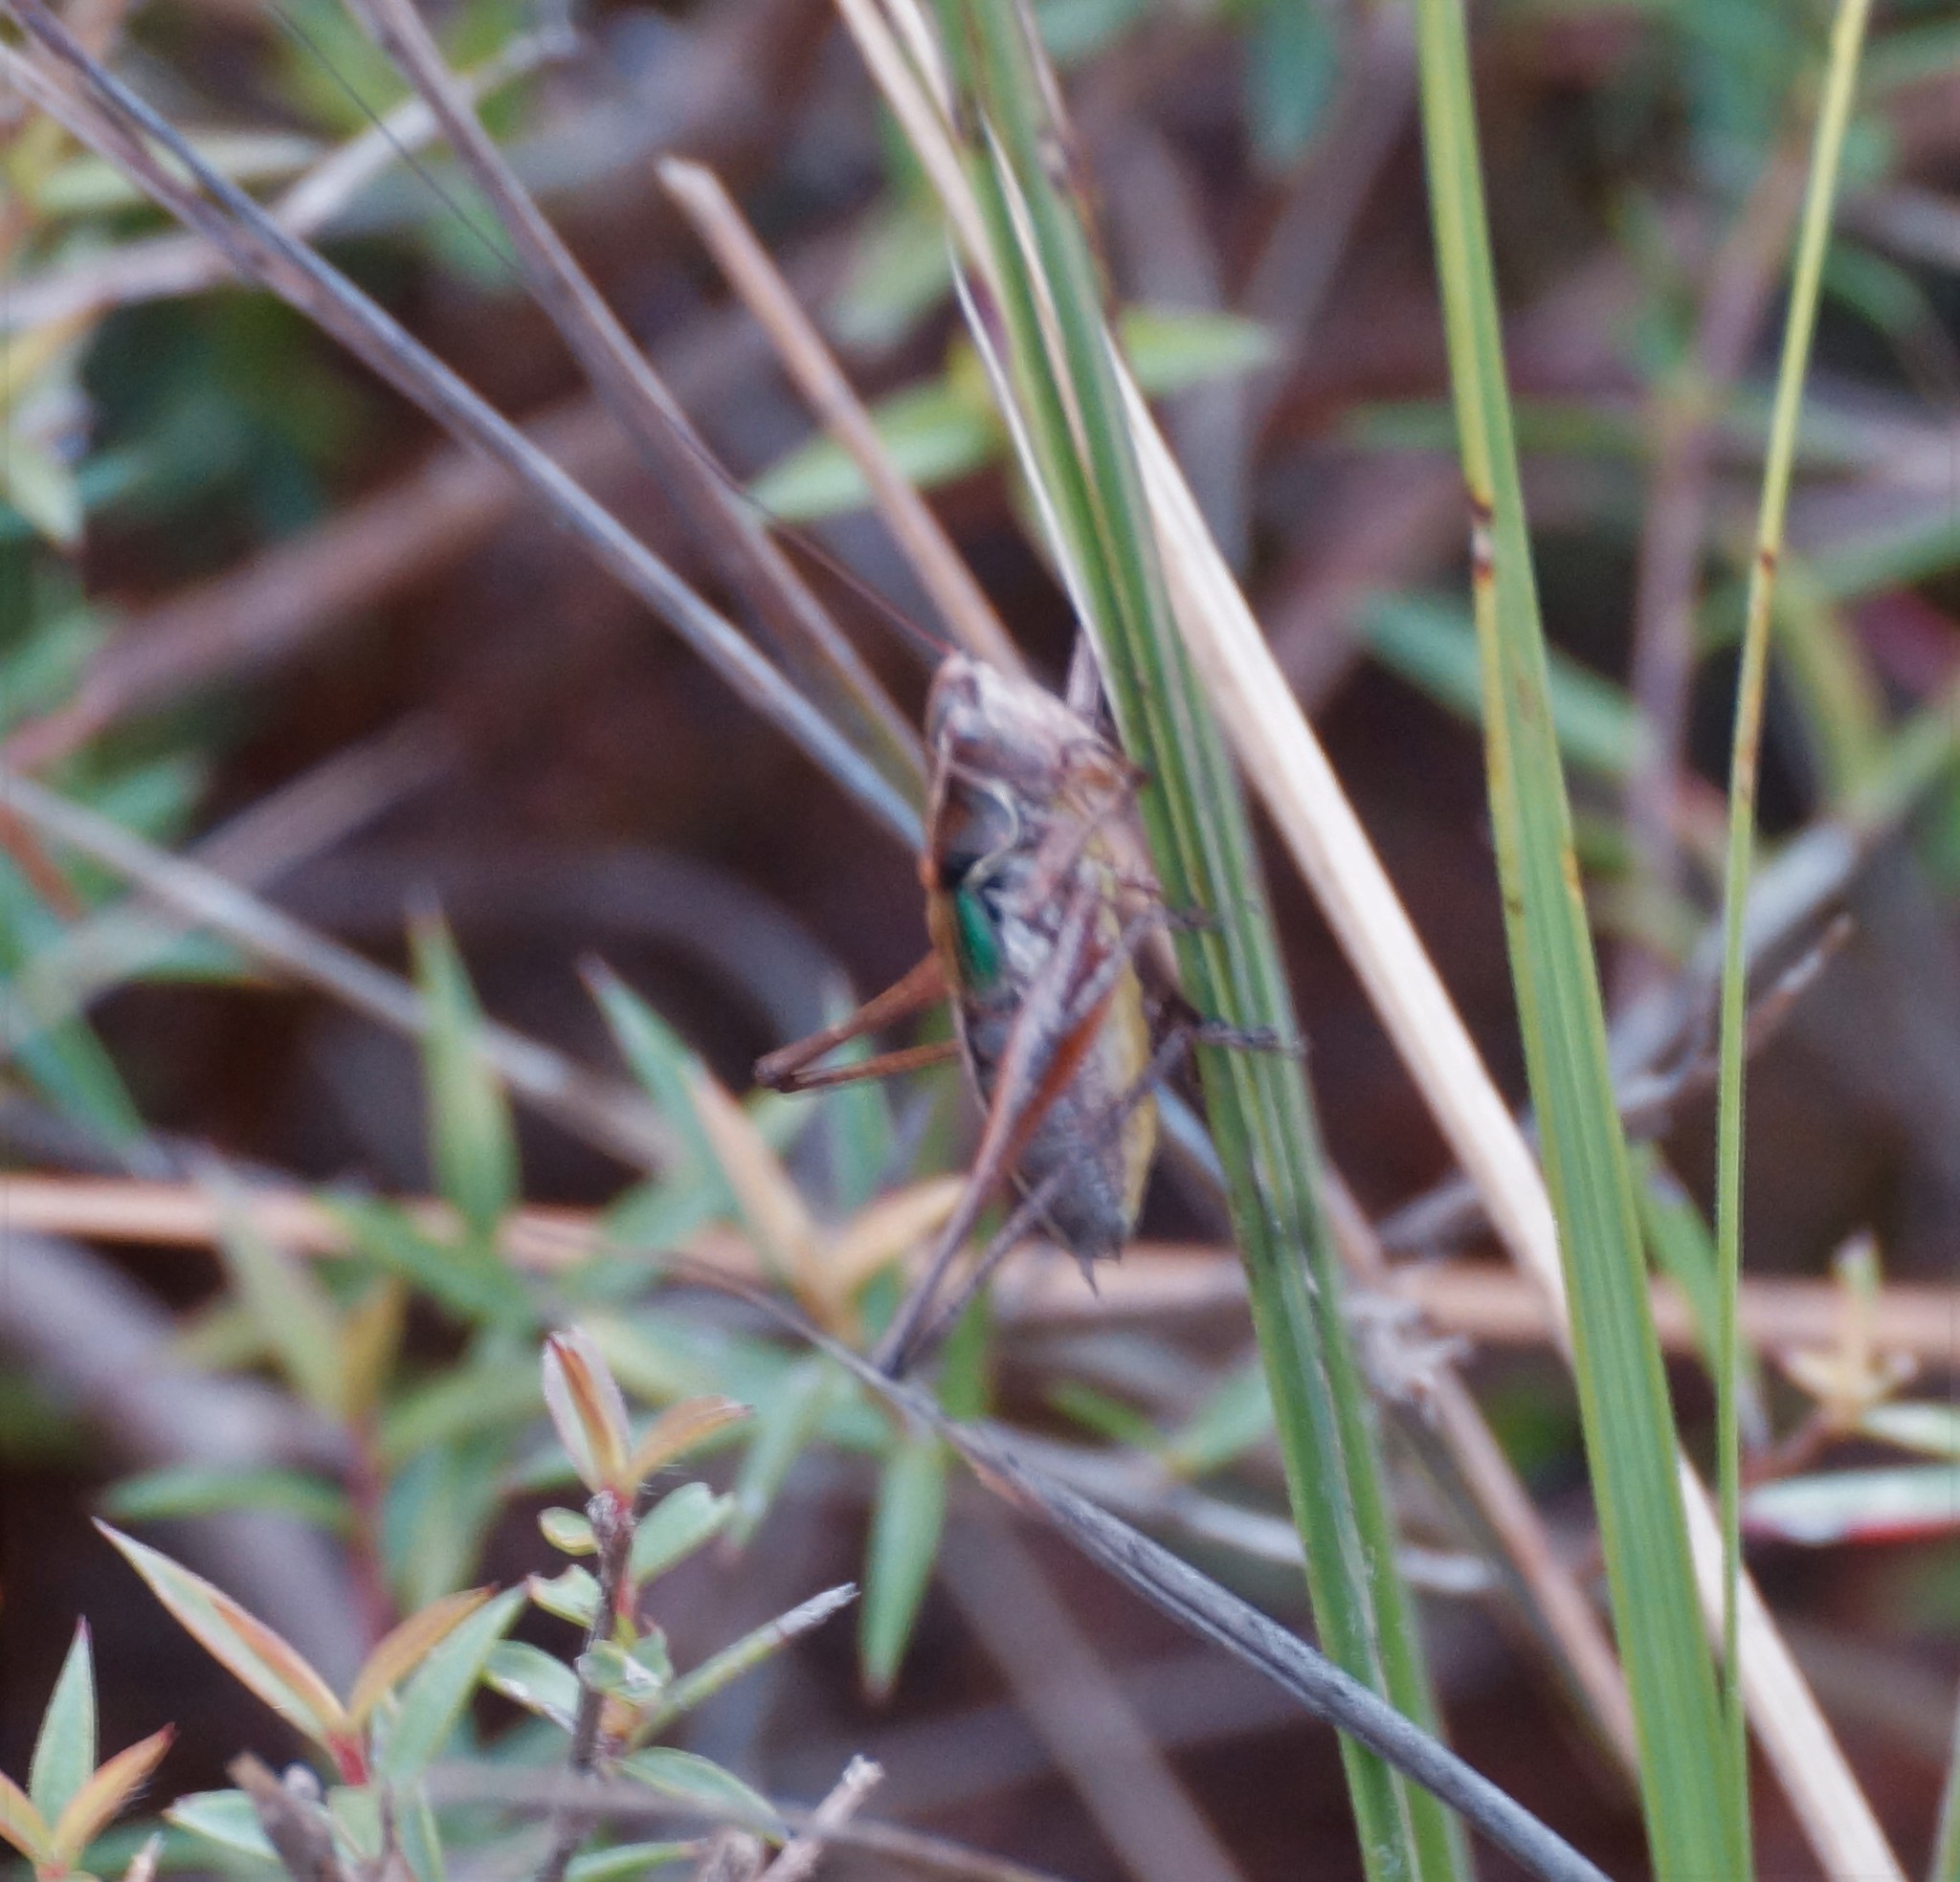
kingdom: Animalia
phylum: Arthropoda
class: Insecta
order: Orthoptera
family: Tettigoniidae
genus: Nanodectes
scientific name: Nanodectes veprephila
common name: Heath-dwelling shield-back
